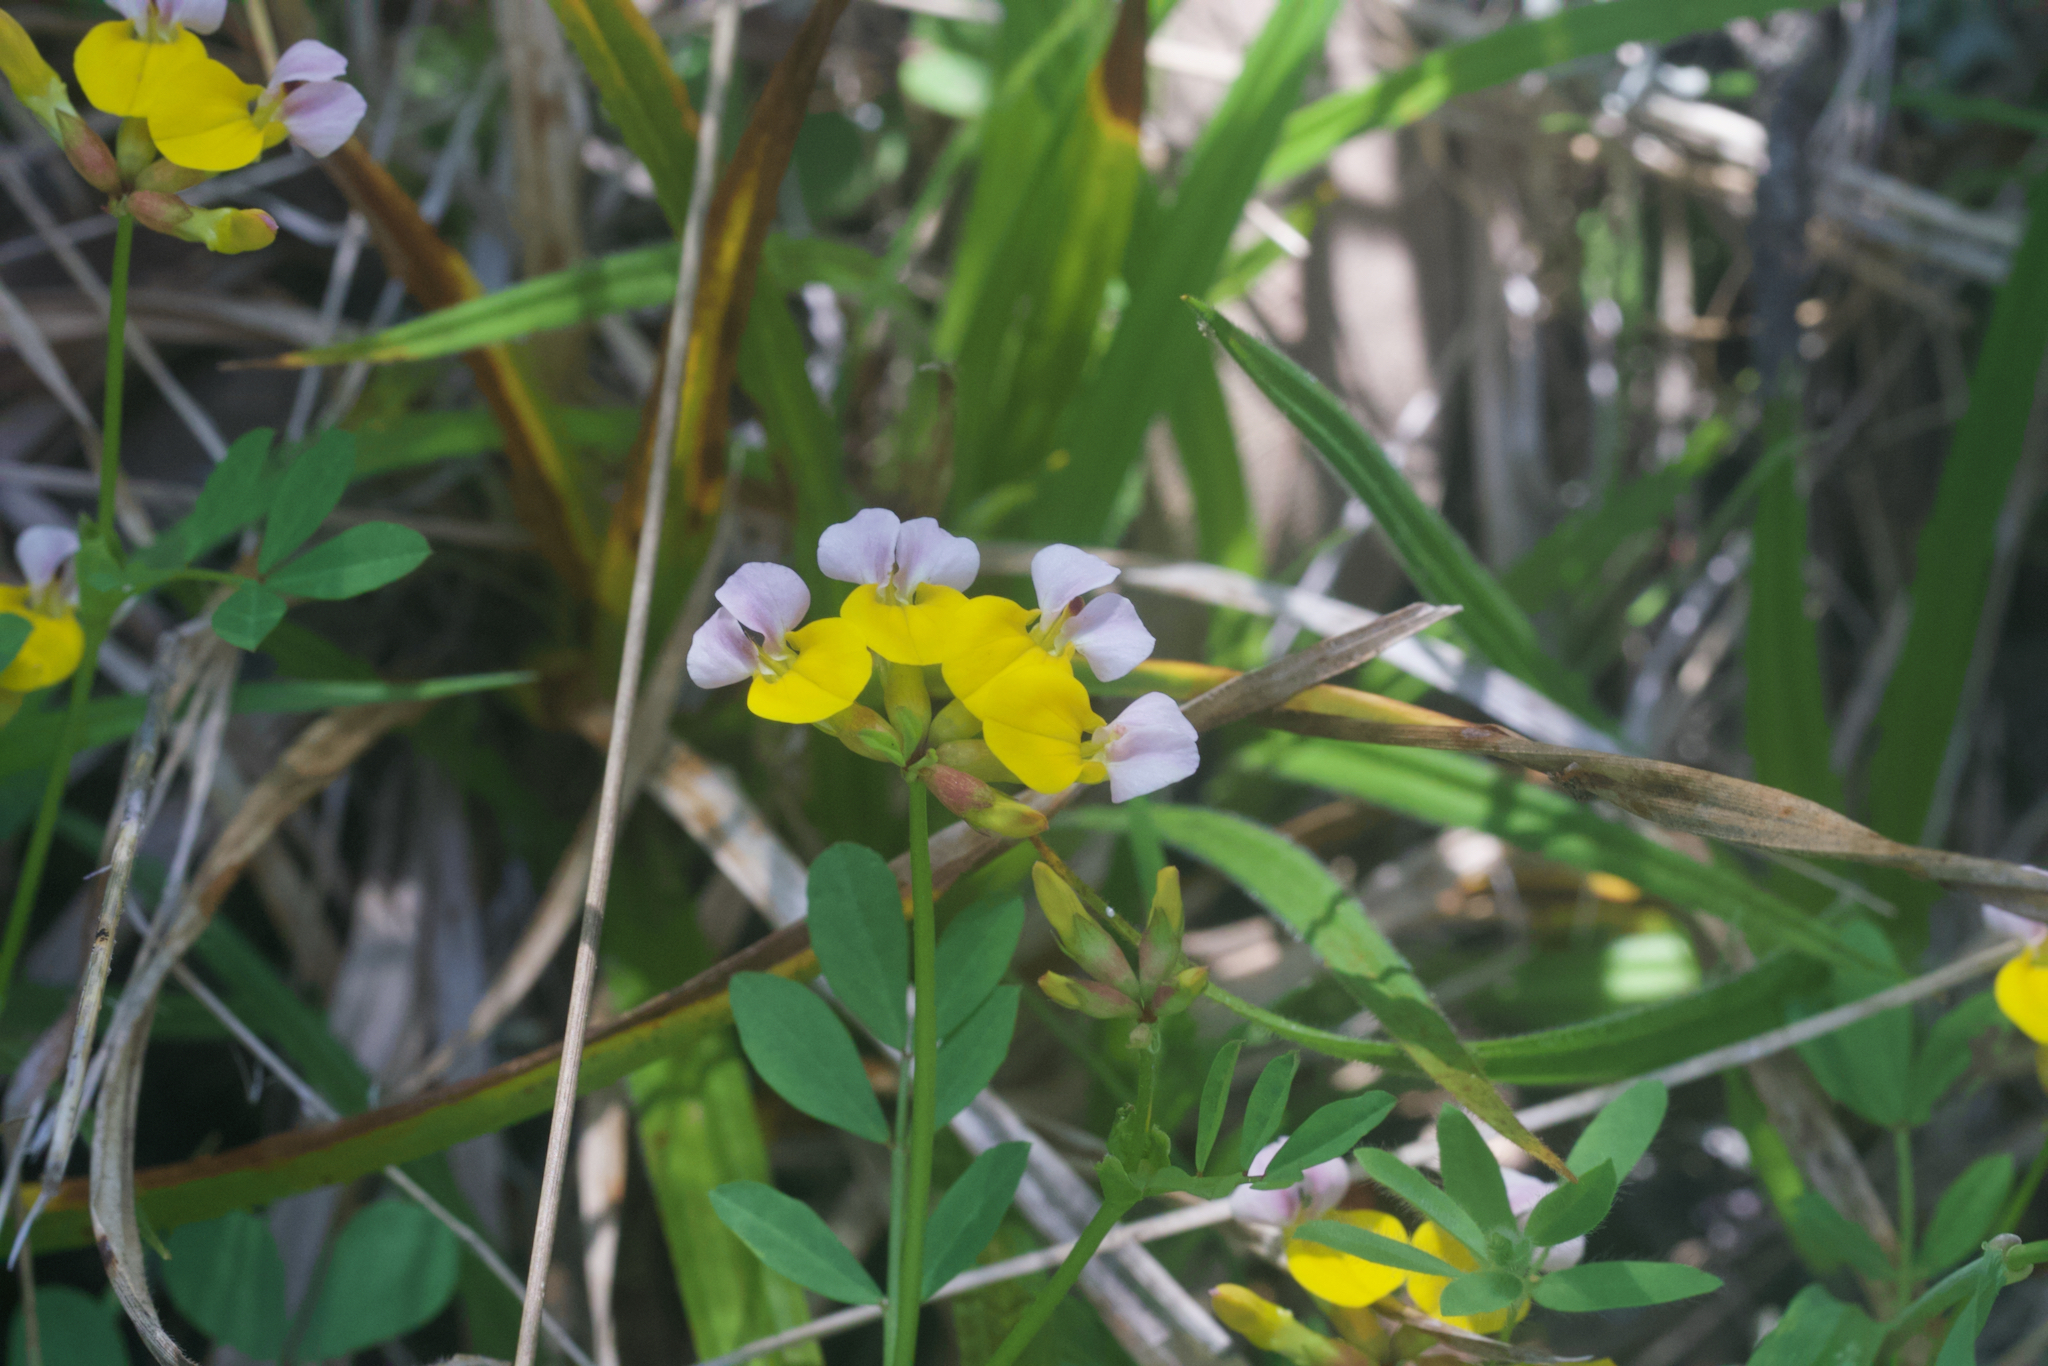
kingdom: Plantae
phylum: Tracheophyta
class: Magnoliopsida
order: Fabales
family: Fabaceae
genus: Hosackia
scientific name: Hosackia gracilis
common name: Seaside bird's-foot lotus
